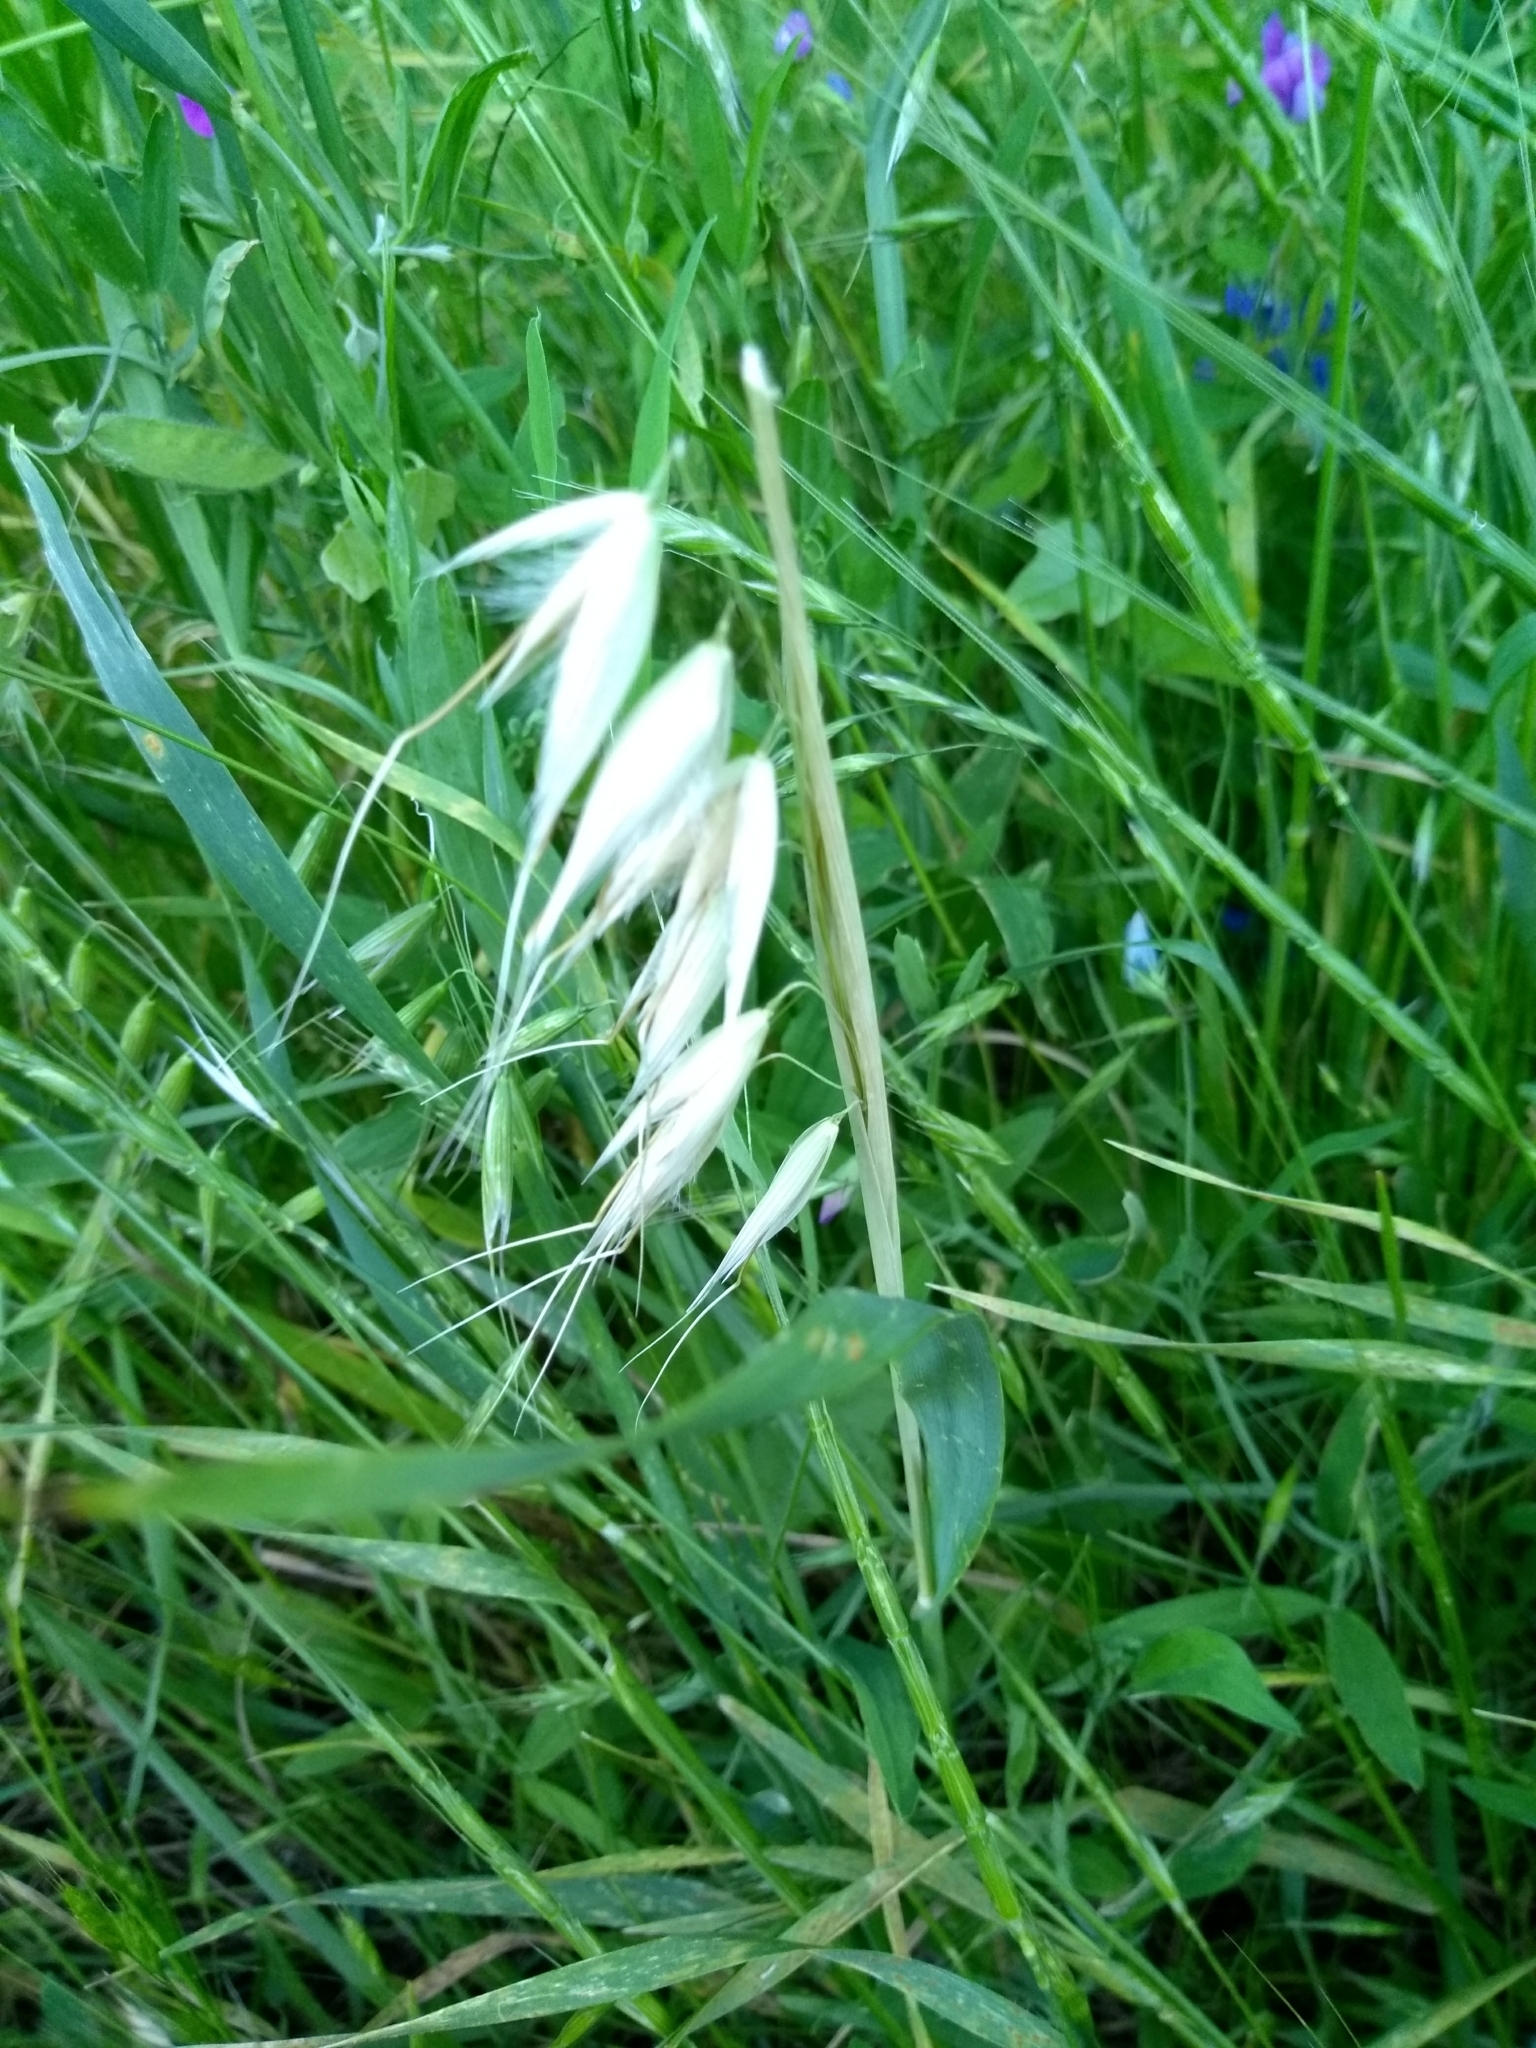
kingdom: Plantae
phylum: Tracheophyta
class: Liliopsida
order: Poales
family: Poaceae
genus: Avena
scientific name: Avena fatua
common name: Wild oat
